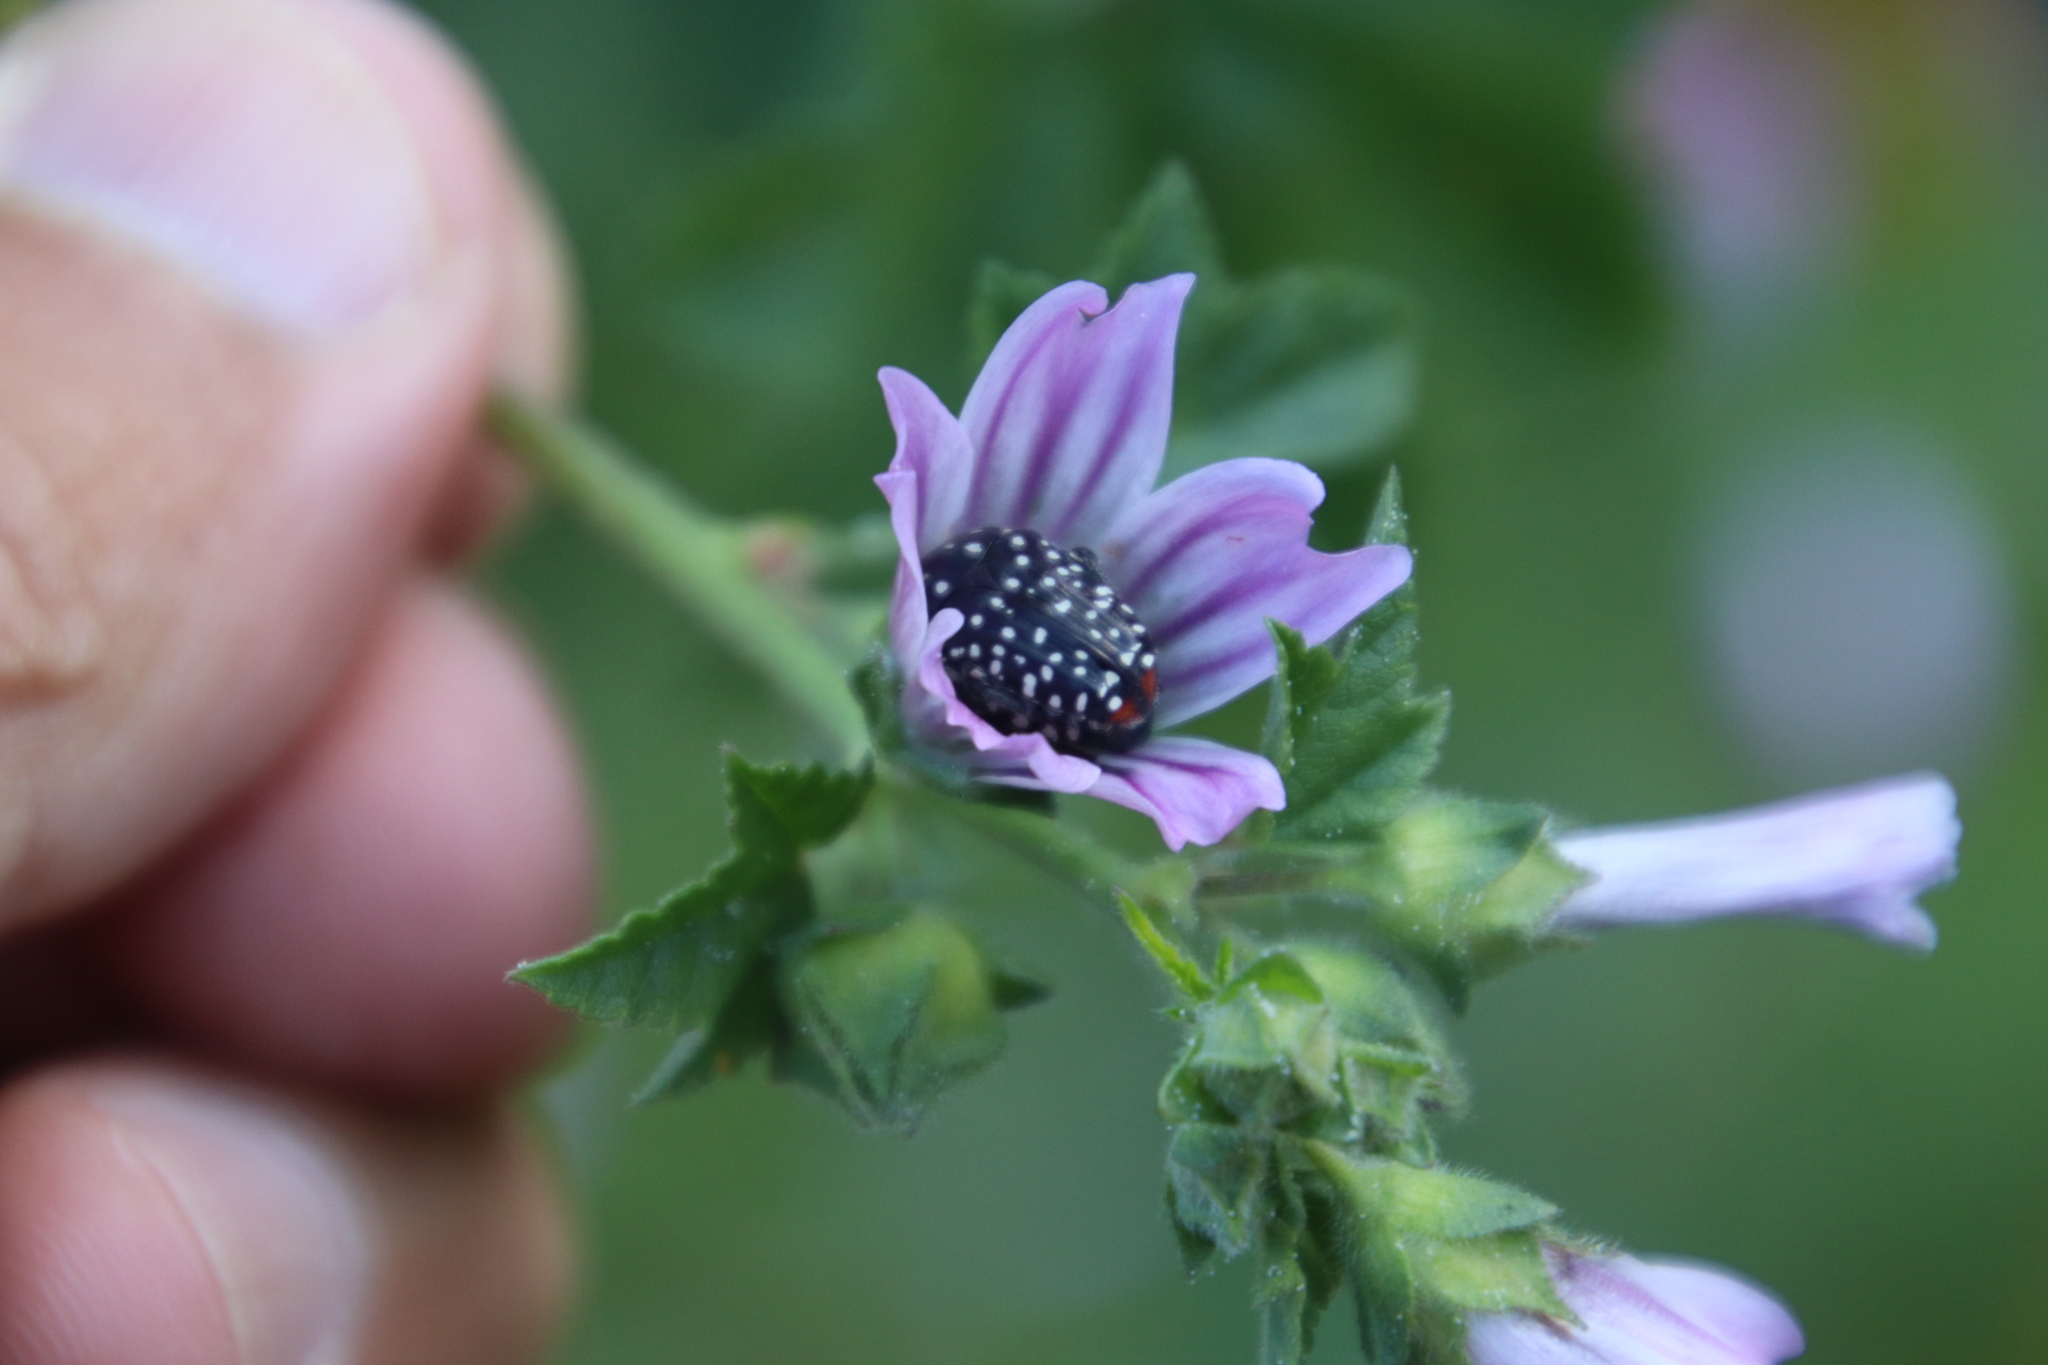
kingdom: Animalia
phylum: Arthropoda
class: Insecta
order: Coleoptera
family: Scarabaeidae
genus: Oxythyrea
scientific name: Oxythyrea
